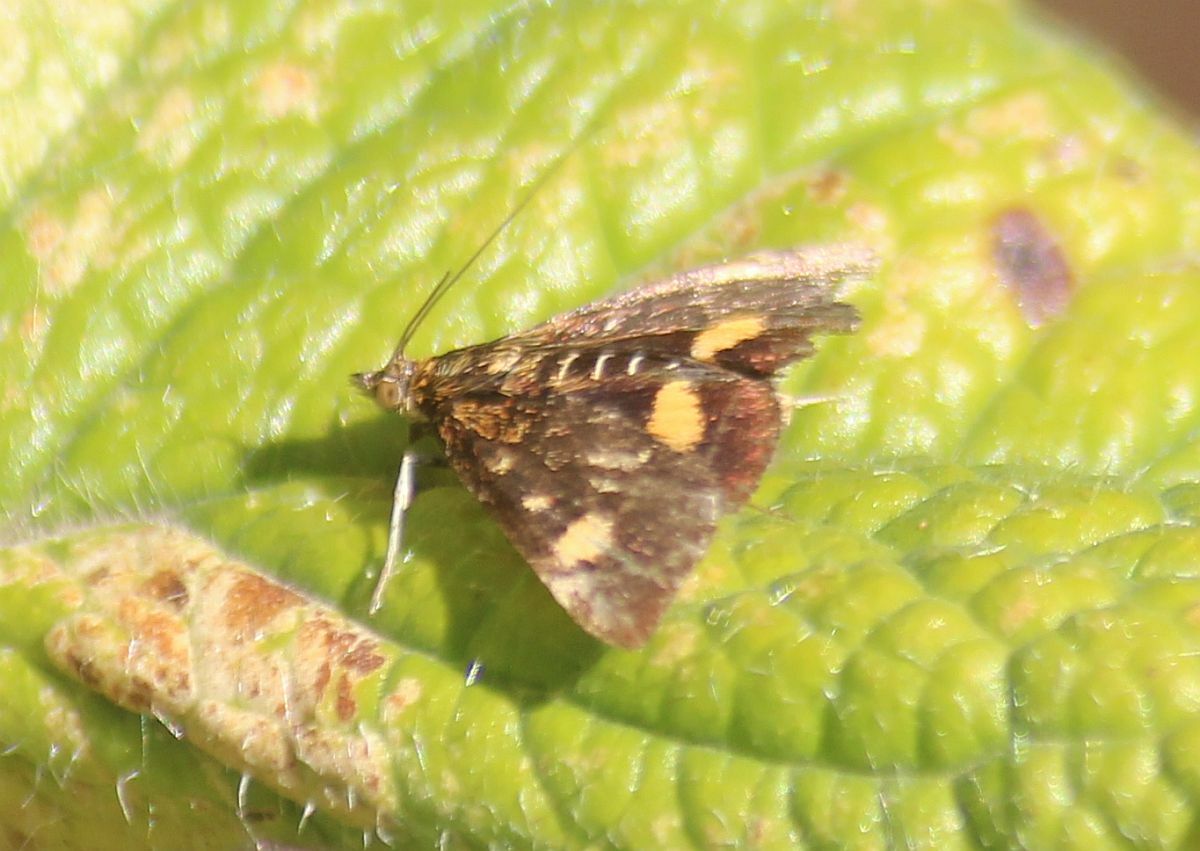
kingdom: Animalia
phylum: Arthropoda
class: Insecta
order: Lepidoptera
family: Crambidae
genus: Pyrausta
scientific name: Pyrausta aurata
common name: Small purple & gold
